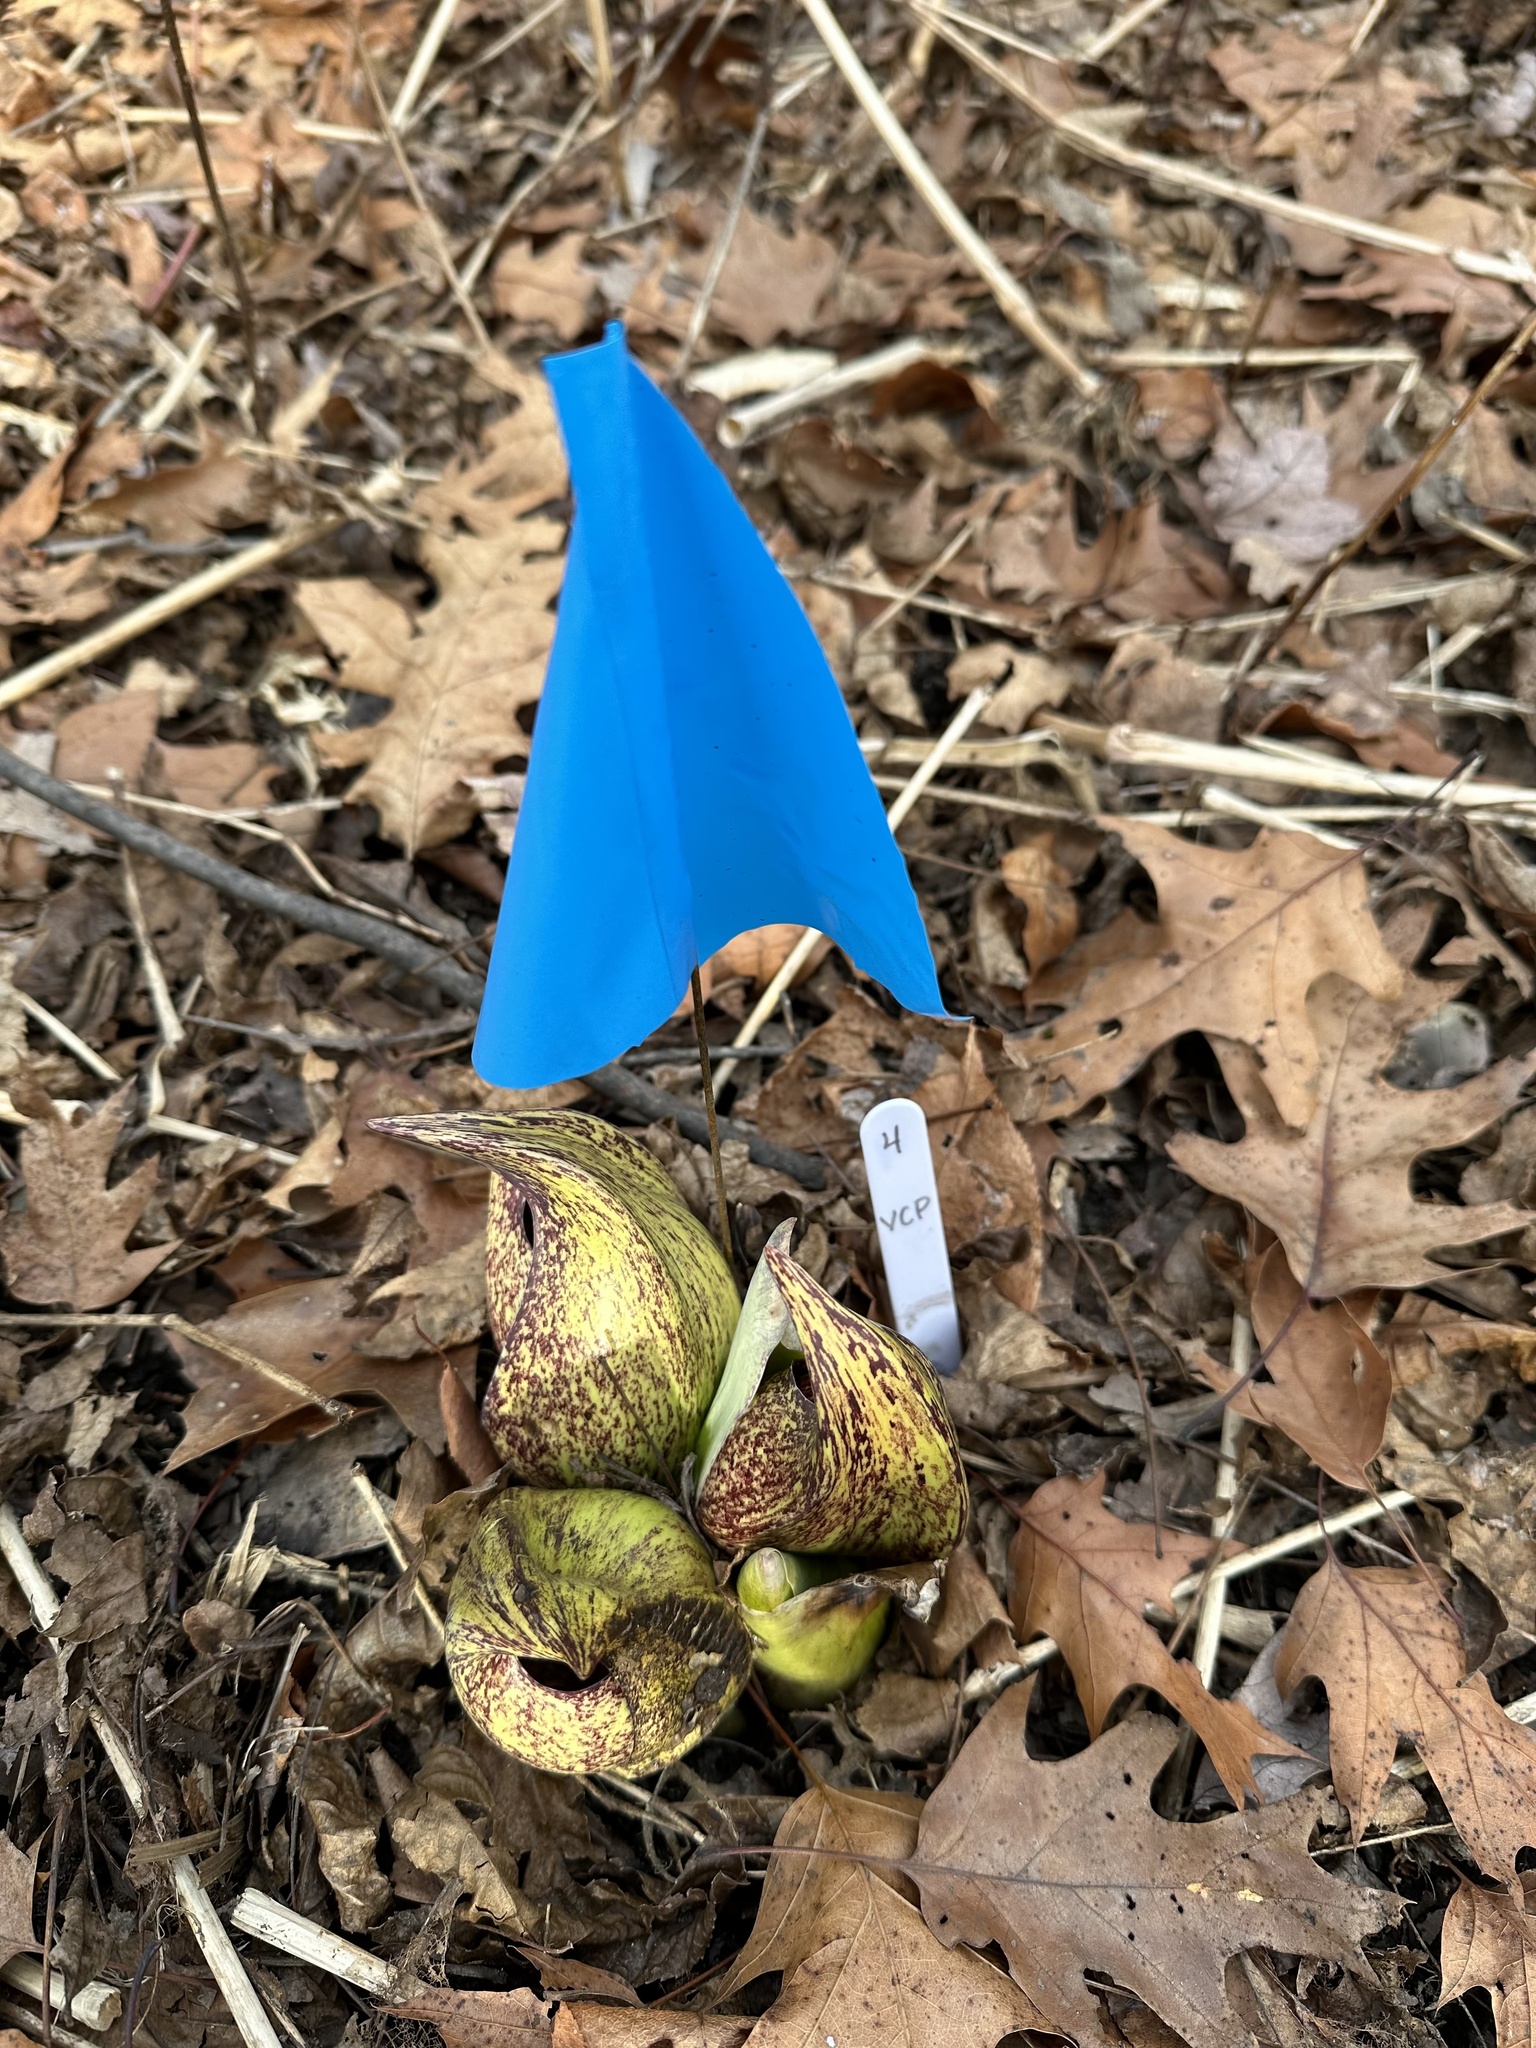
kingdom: Plantae
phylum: Tracheophyta
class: Liliopsida
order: Alismatales
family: Araceae
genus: Symplocarpus
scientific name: Symplocarpus foetidus
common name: Eastern skunk cabbage
